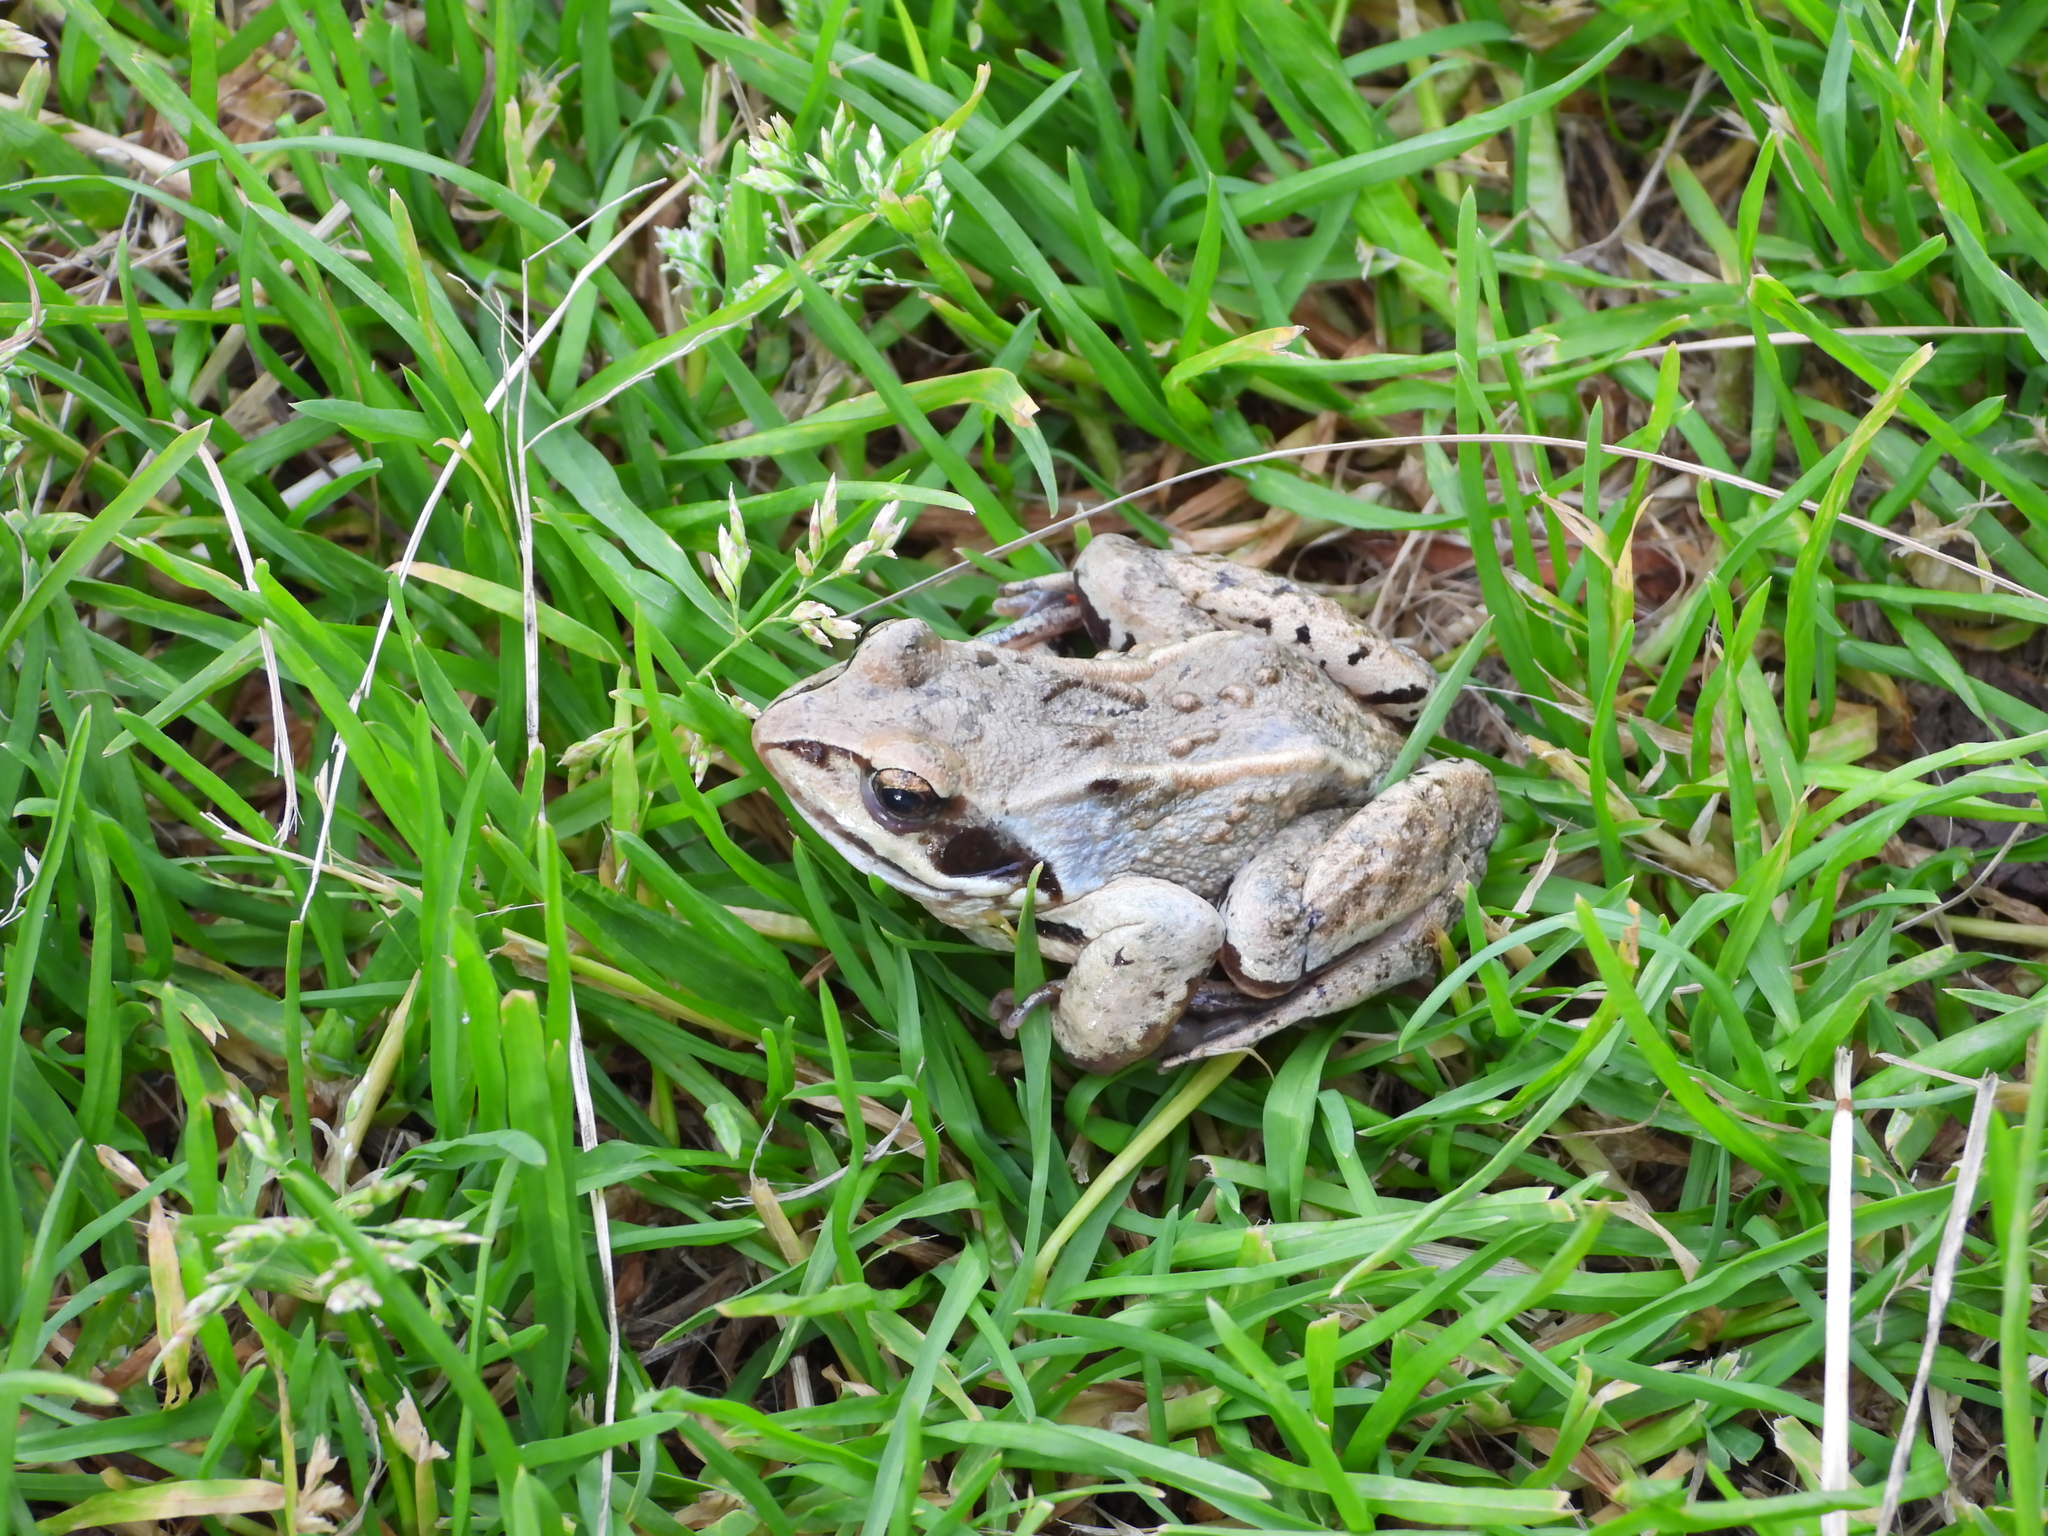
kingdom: Animalia
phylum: Chordata
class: Amphibia
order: Anura
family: Ranidae
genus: Rana
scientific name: Rana arvalis
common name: Moor frog
